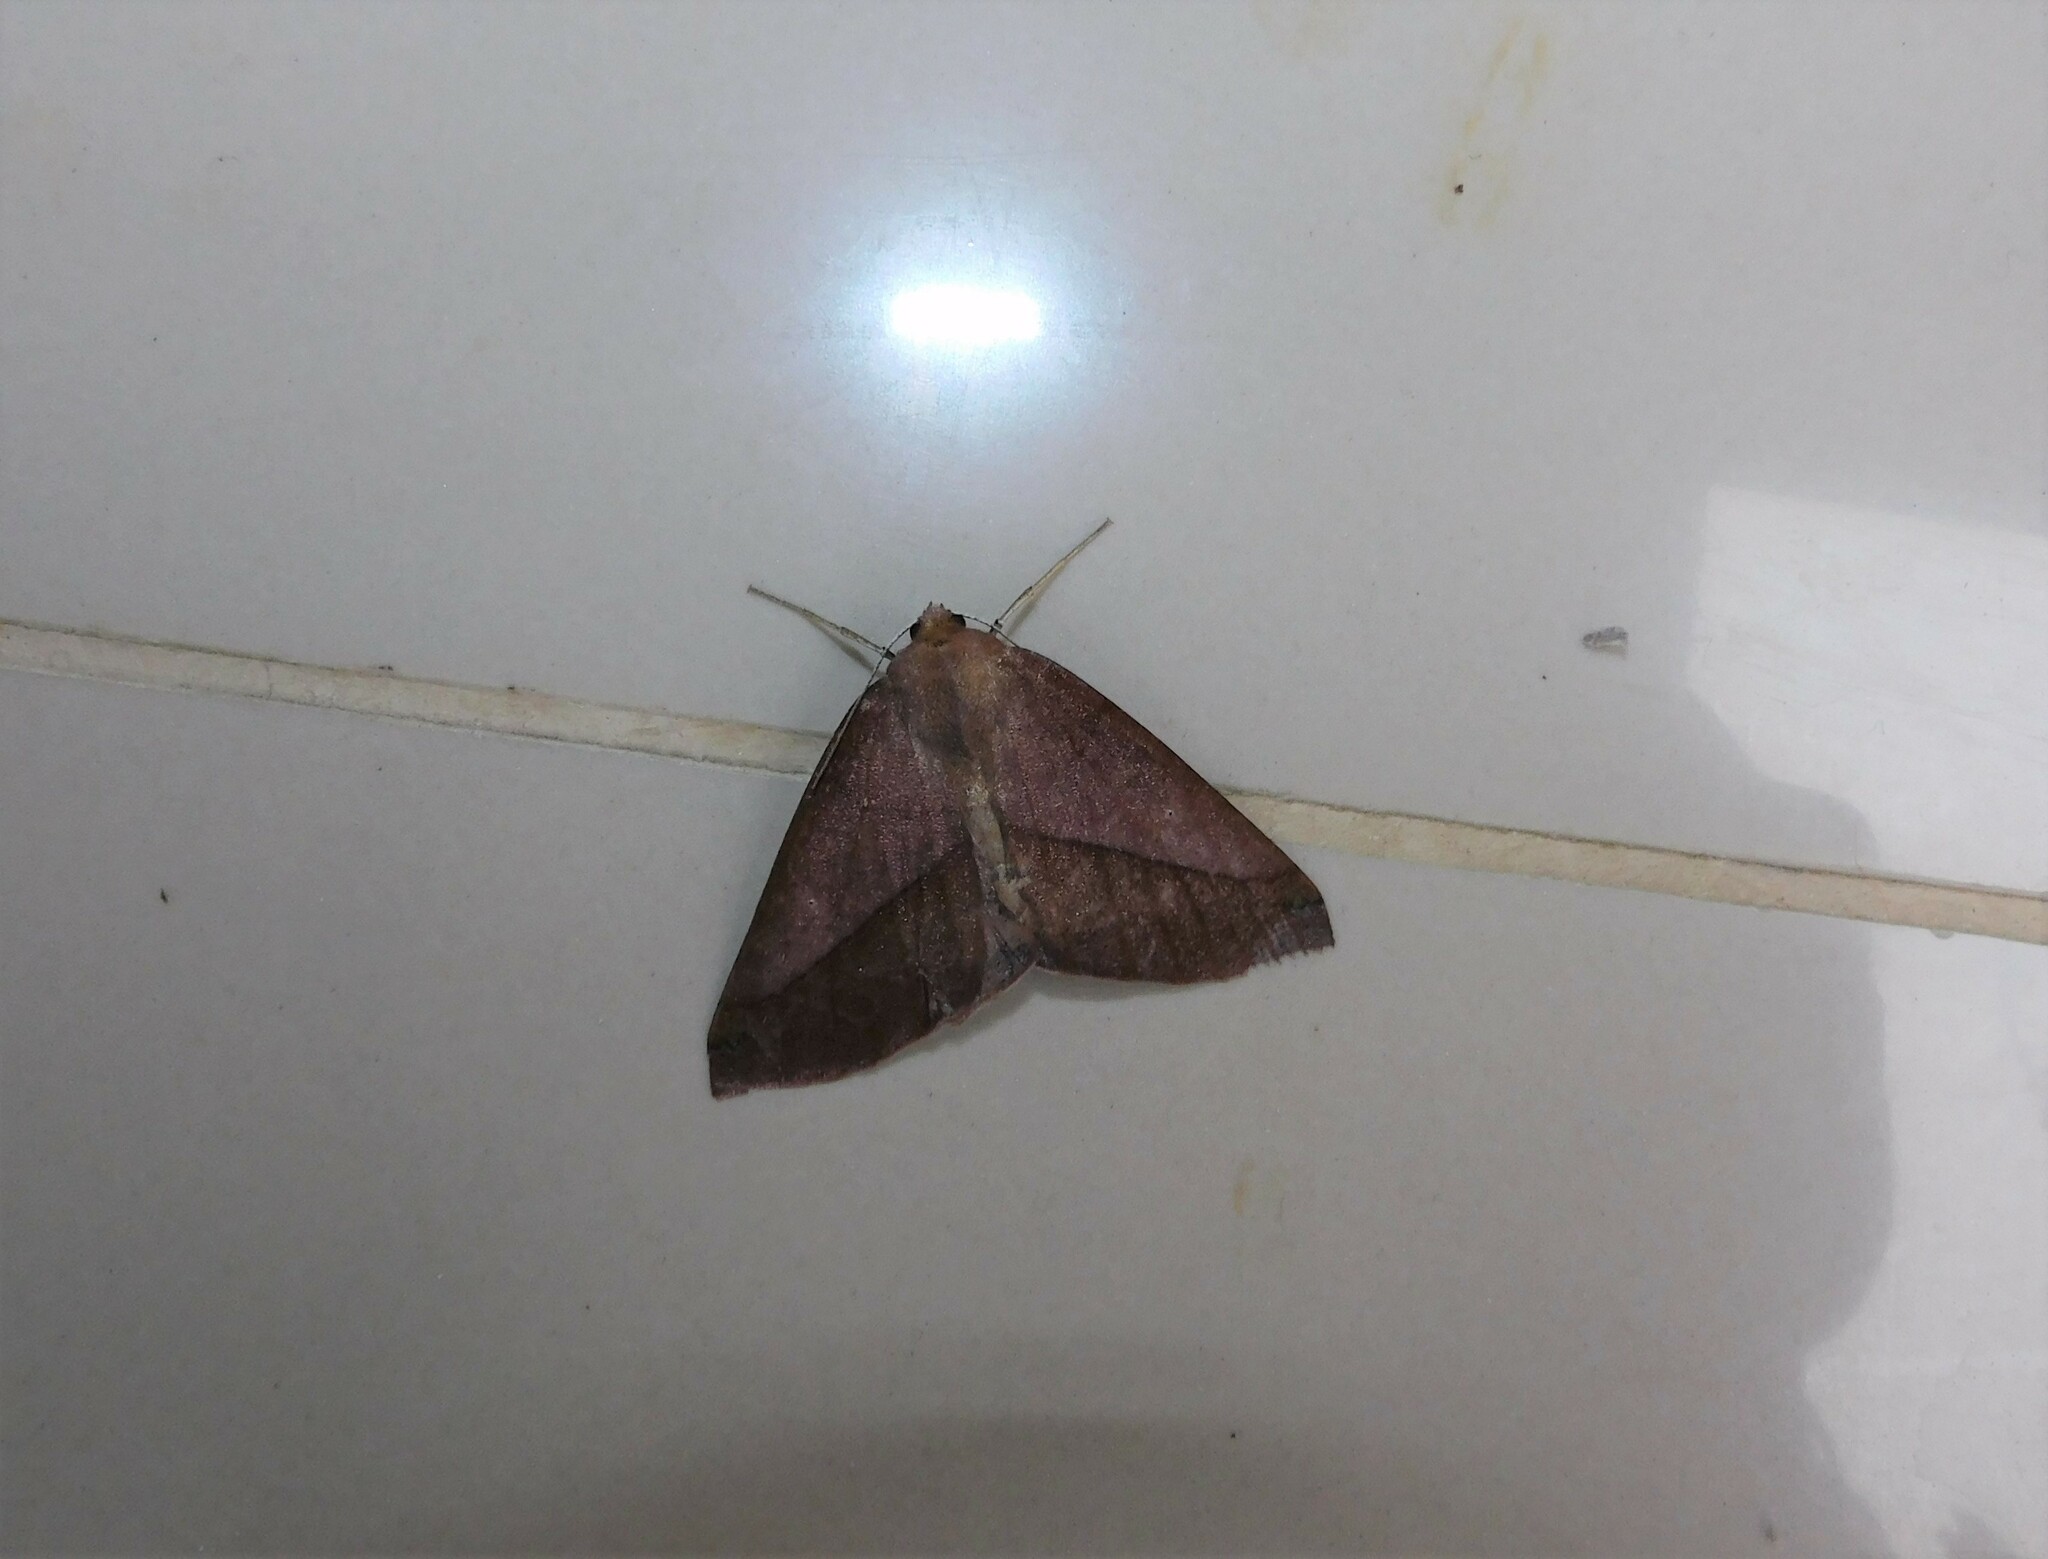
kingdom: Animalia
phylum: Arthropoda
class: Insecta
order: Lepidoptera
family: Geometridae
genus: Bassania
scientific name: Bassania olivacea
